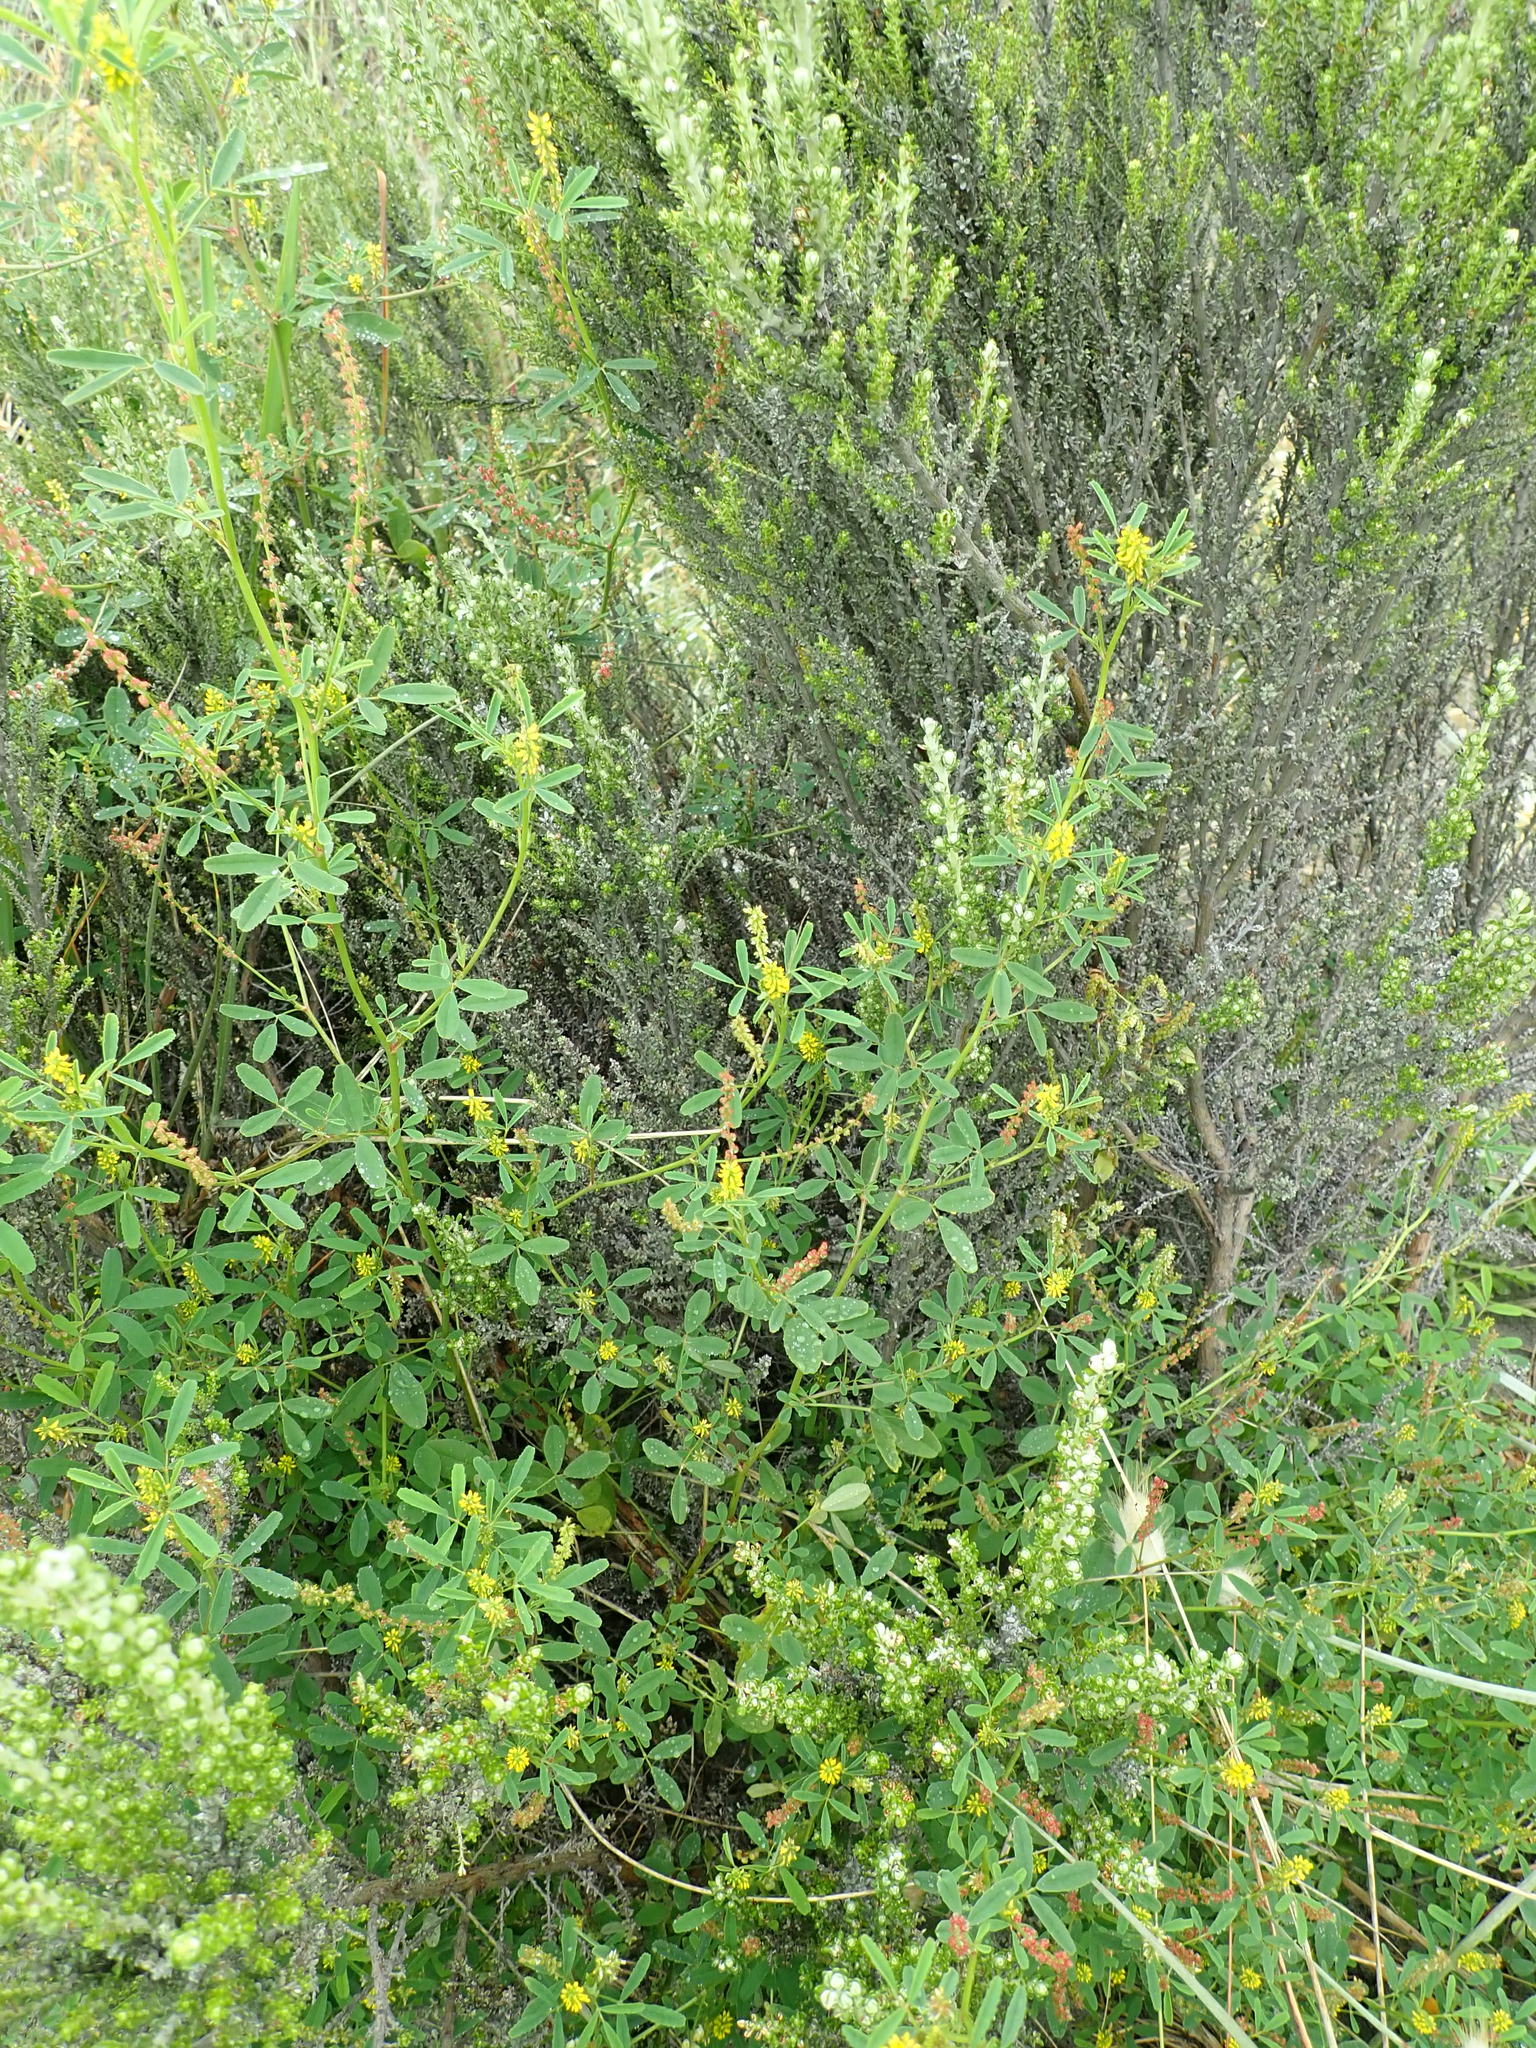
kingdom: Plantae
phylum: Tracheophyta
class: Magnoliopsida
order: Fabales
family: Fabaceae
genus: Melilotus
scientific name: Melilotus indicus
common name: Small melilot
